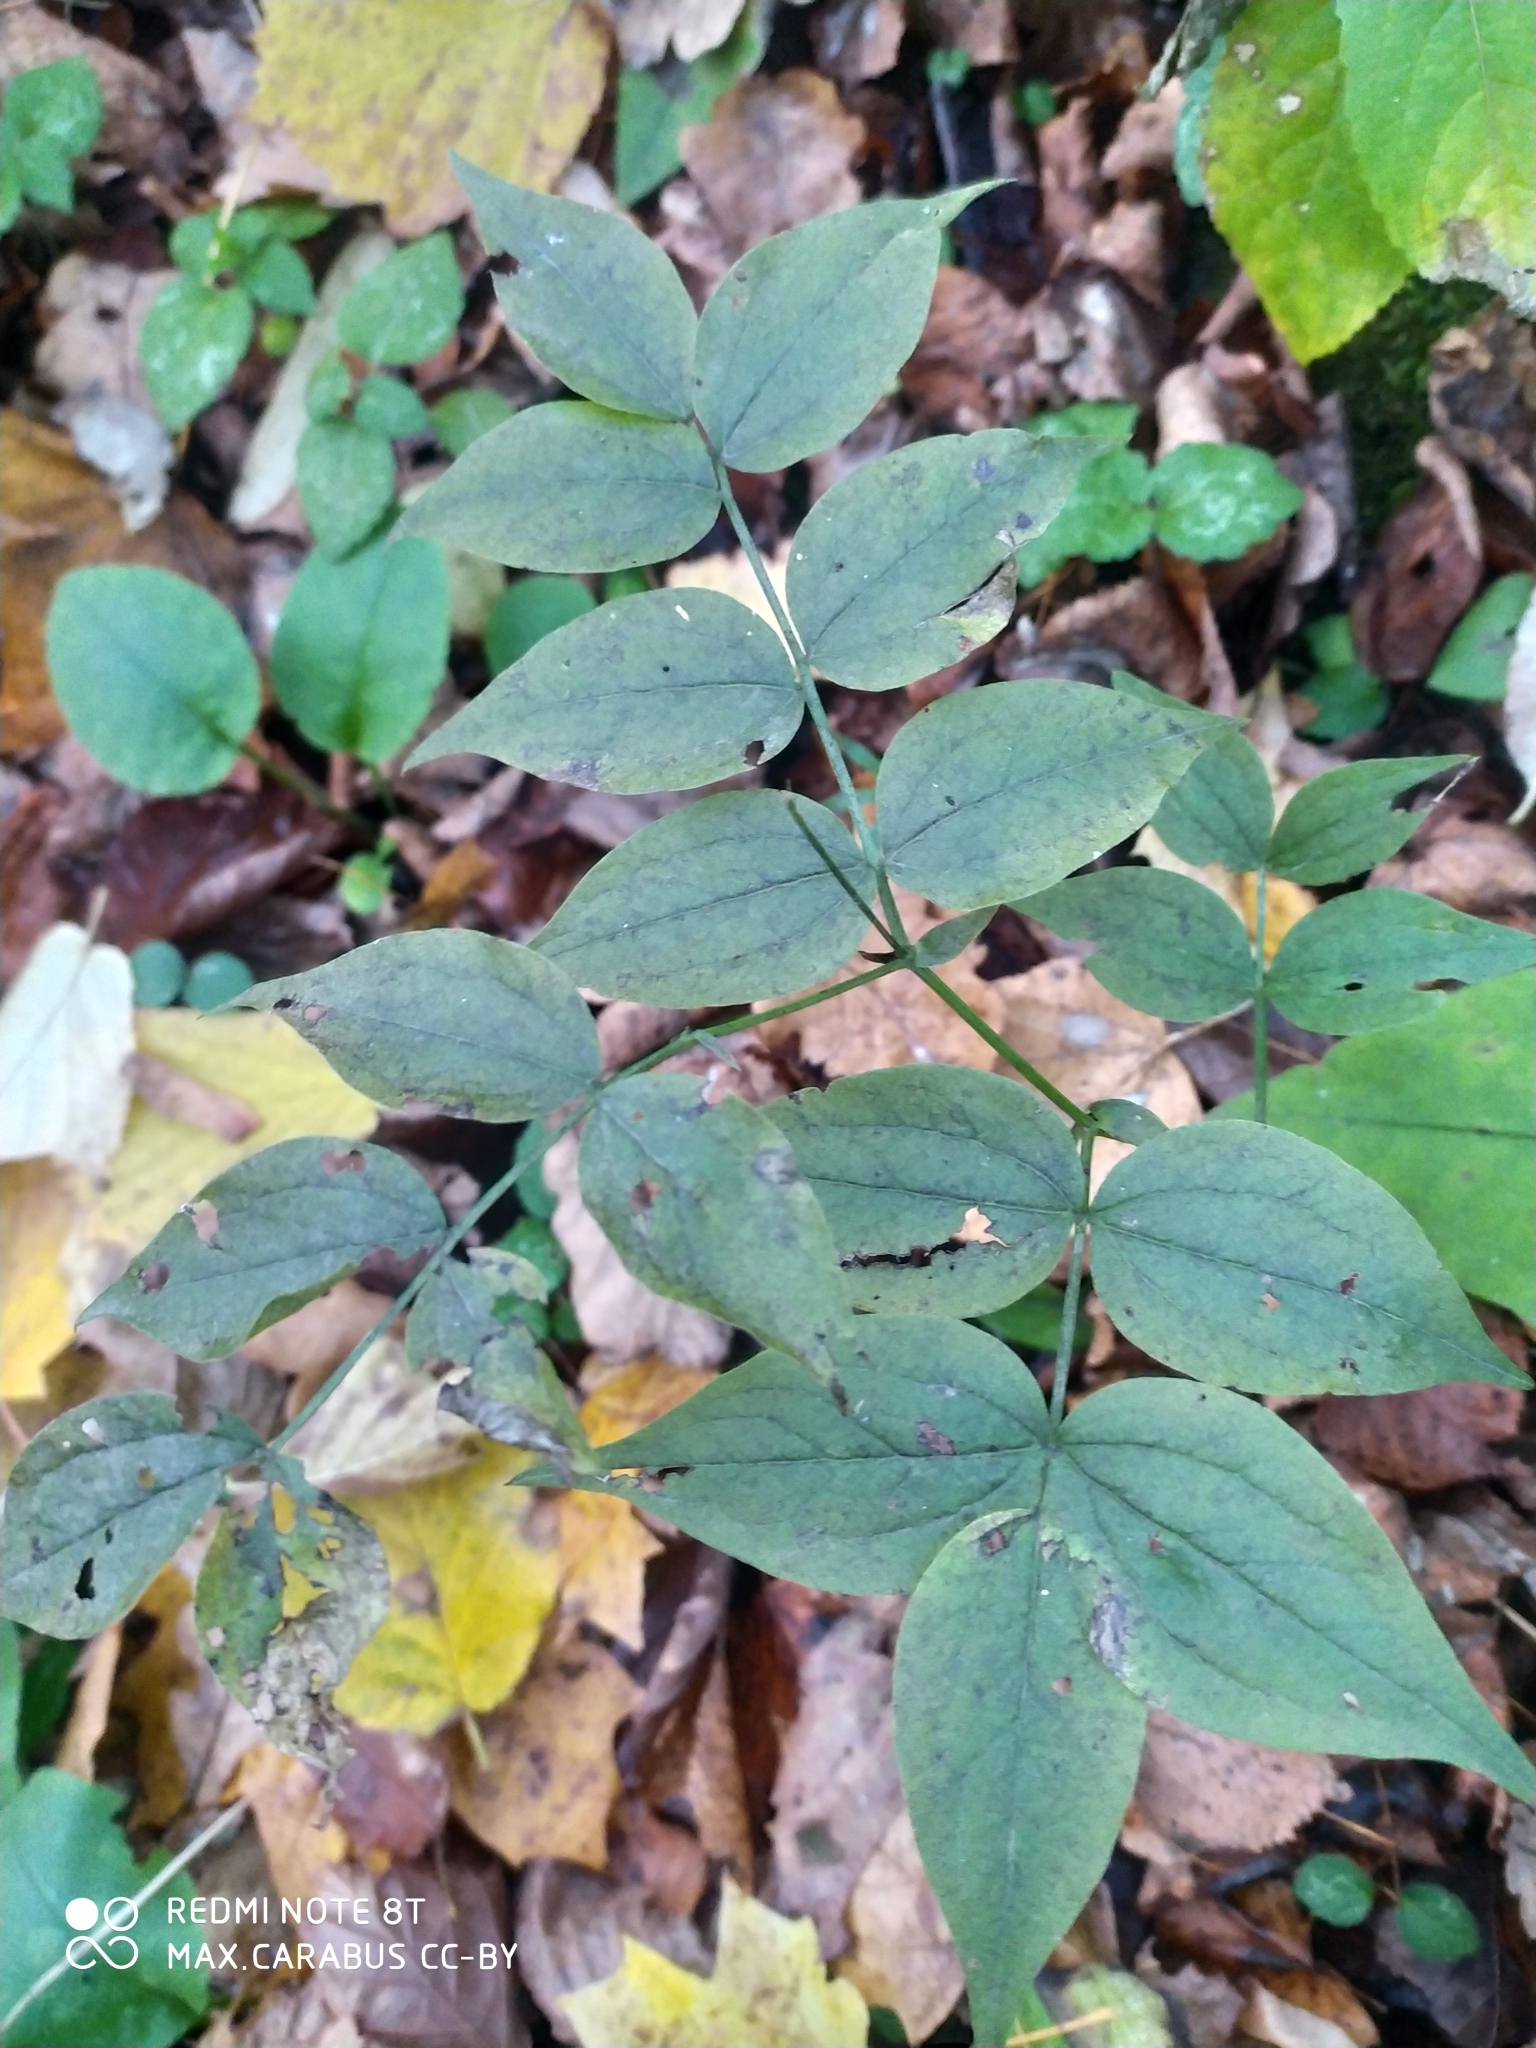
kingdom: Plantae
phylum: Tracheophyta
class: Magnoliopsida
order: Fabales
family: Fabaceae
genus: Lathyrus
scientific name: Lathyrus vernus
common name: Spring pea
